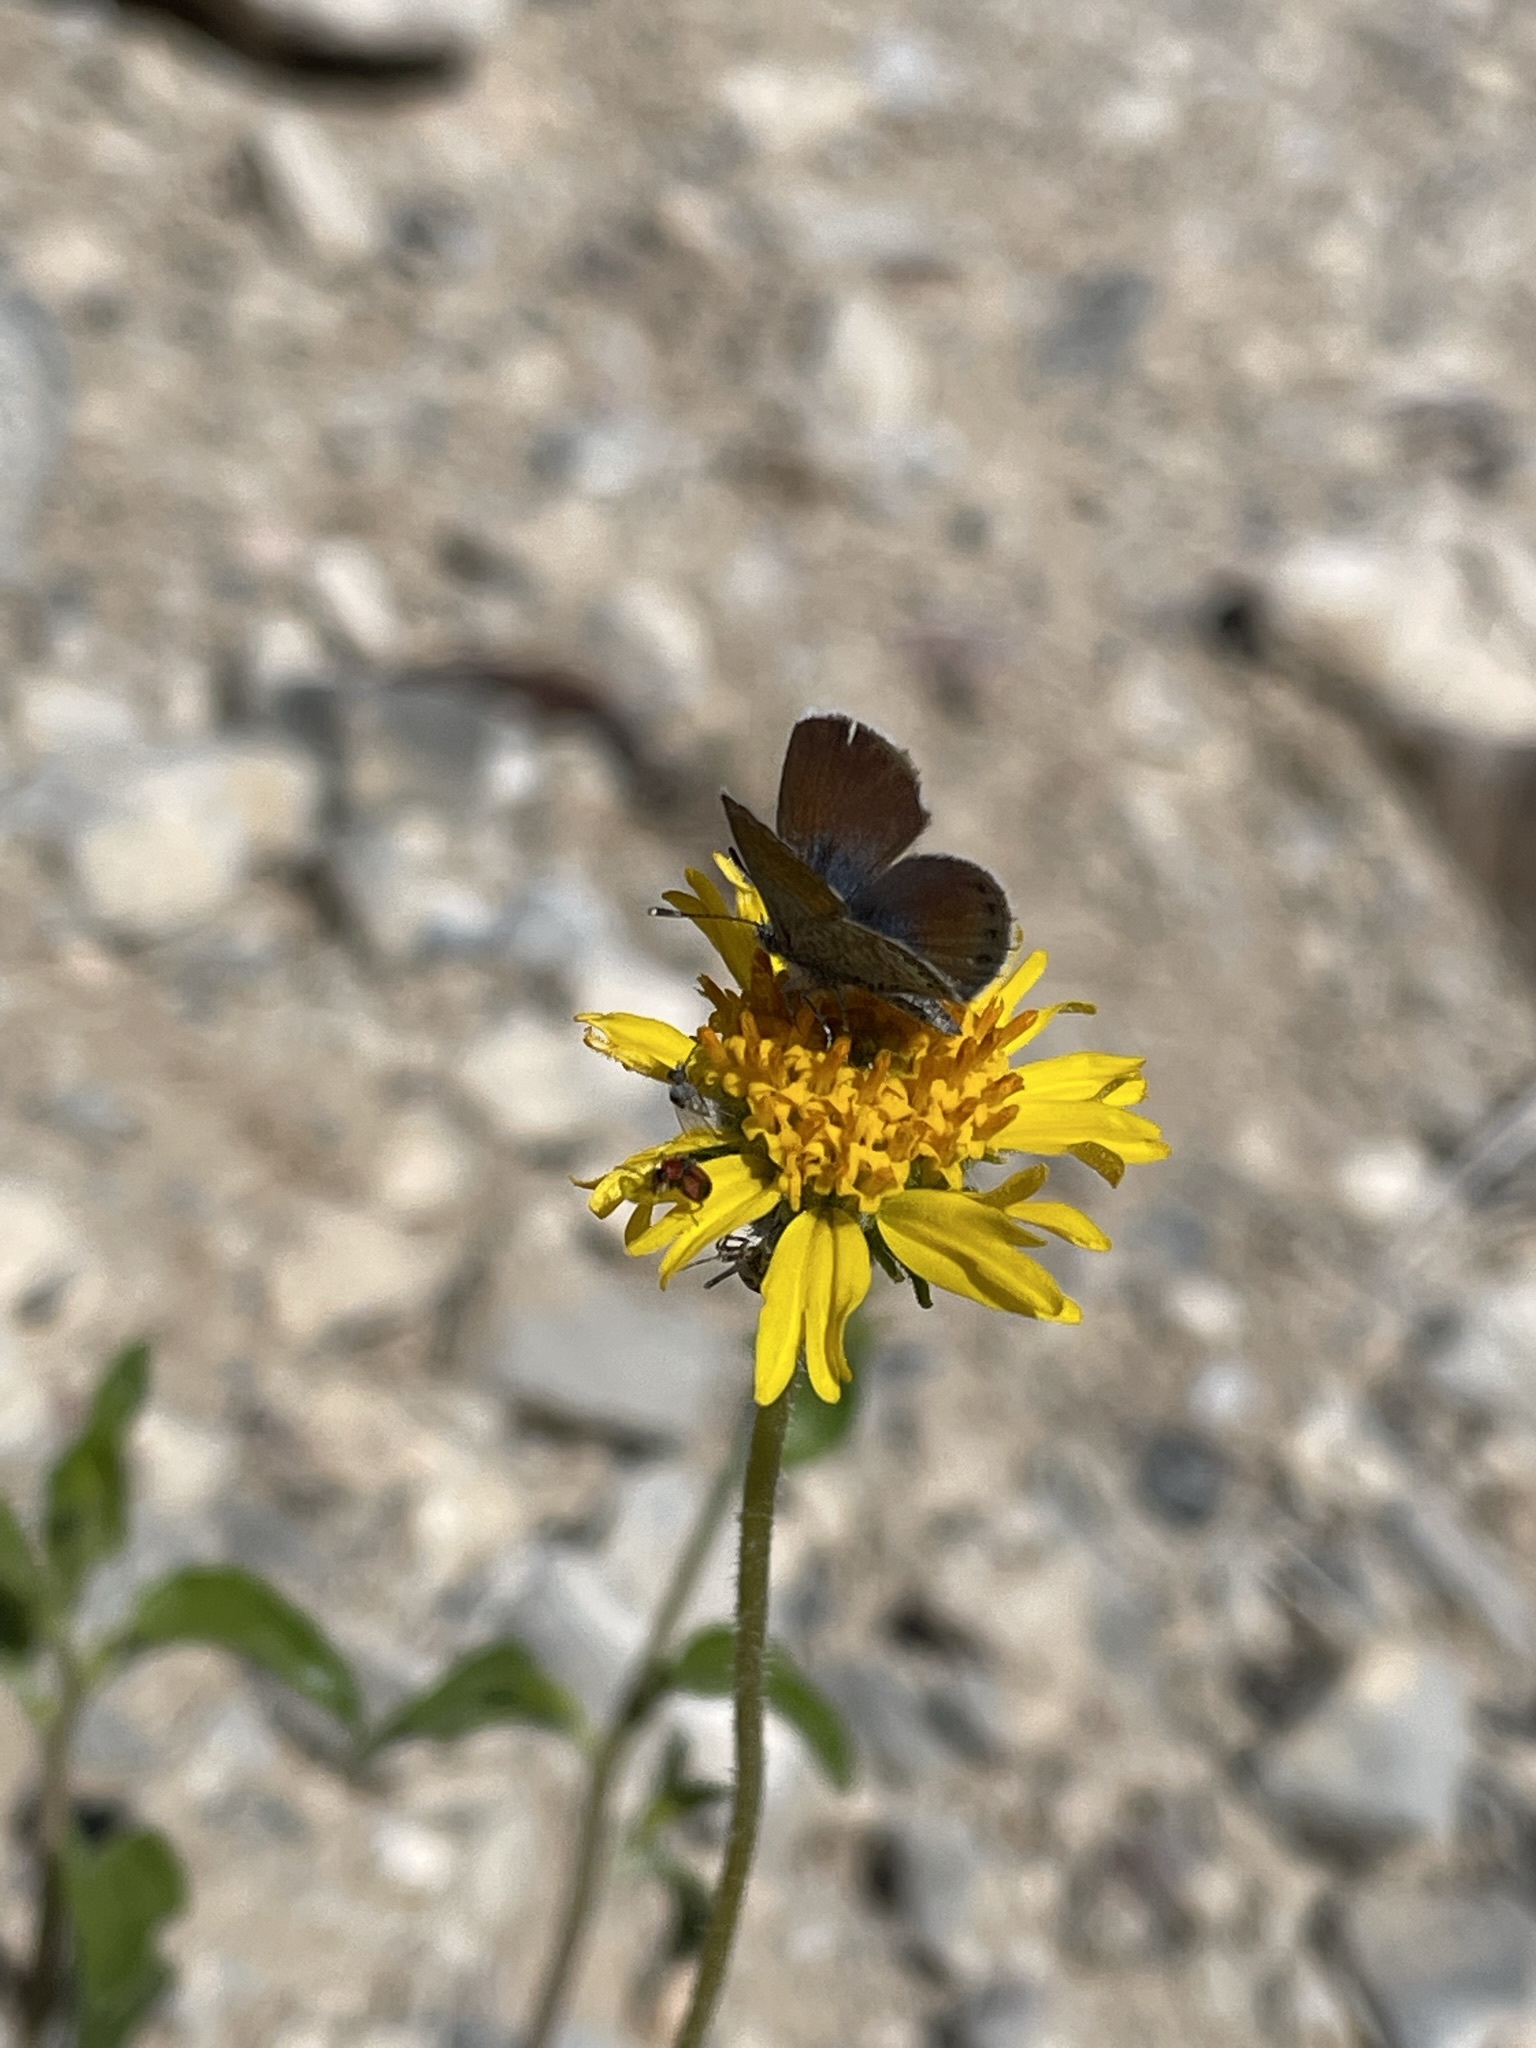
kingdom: Animalia
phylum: Arthropoda
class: Insecta
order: Lepidoptera
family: Lycaenidae
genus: Brephidium
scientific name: Brephidium exilis
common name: Pygmy blue
